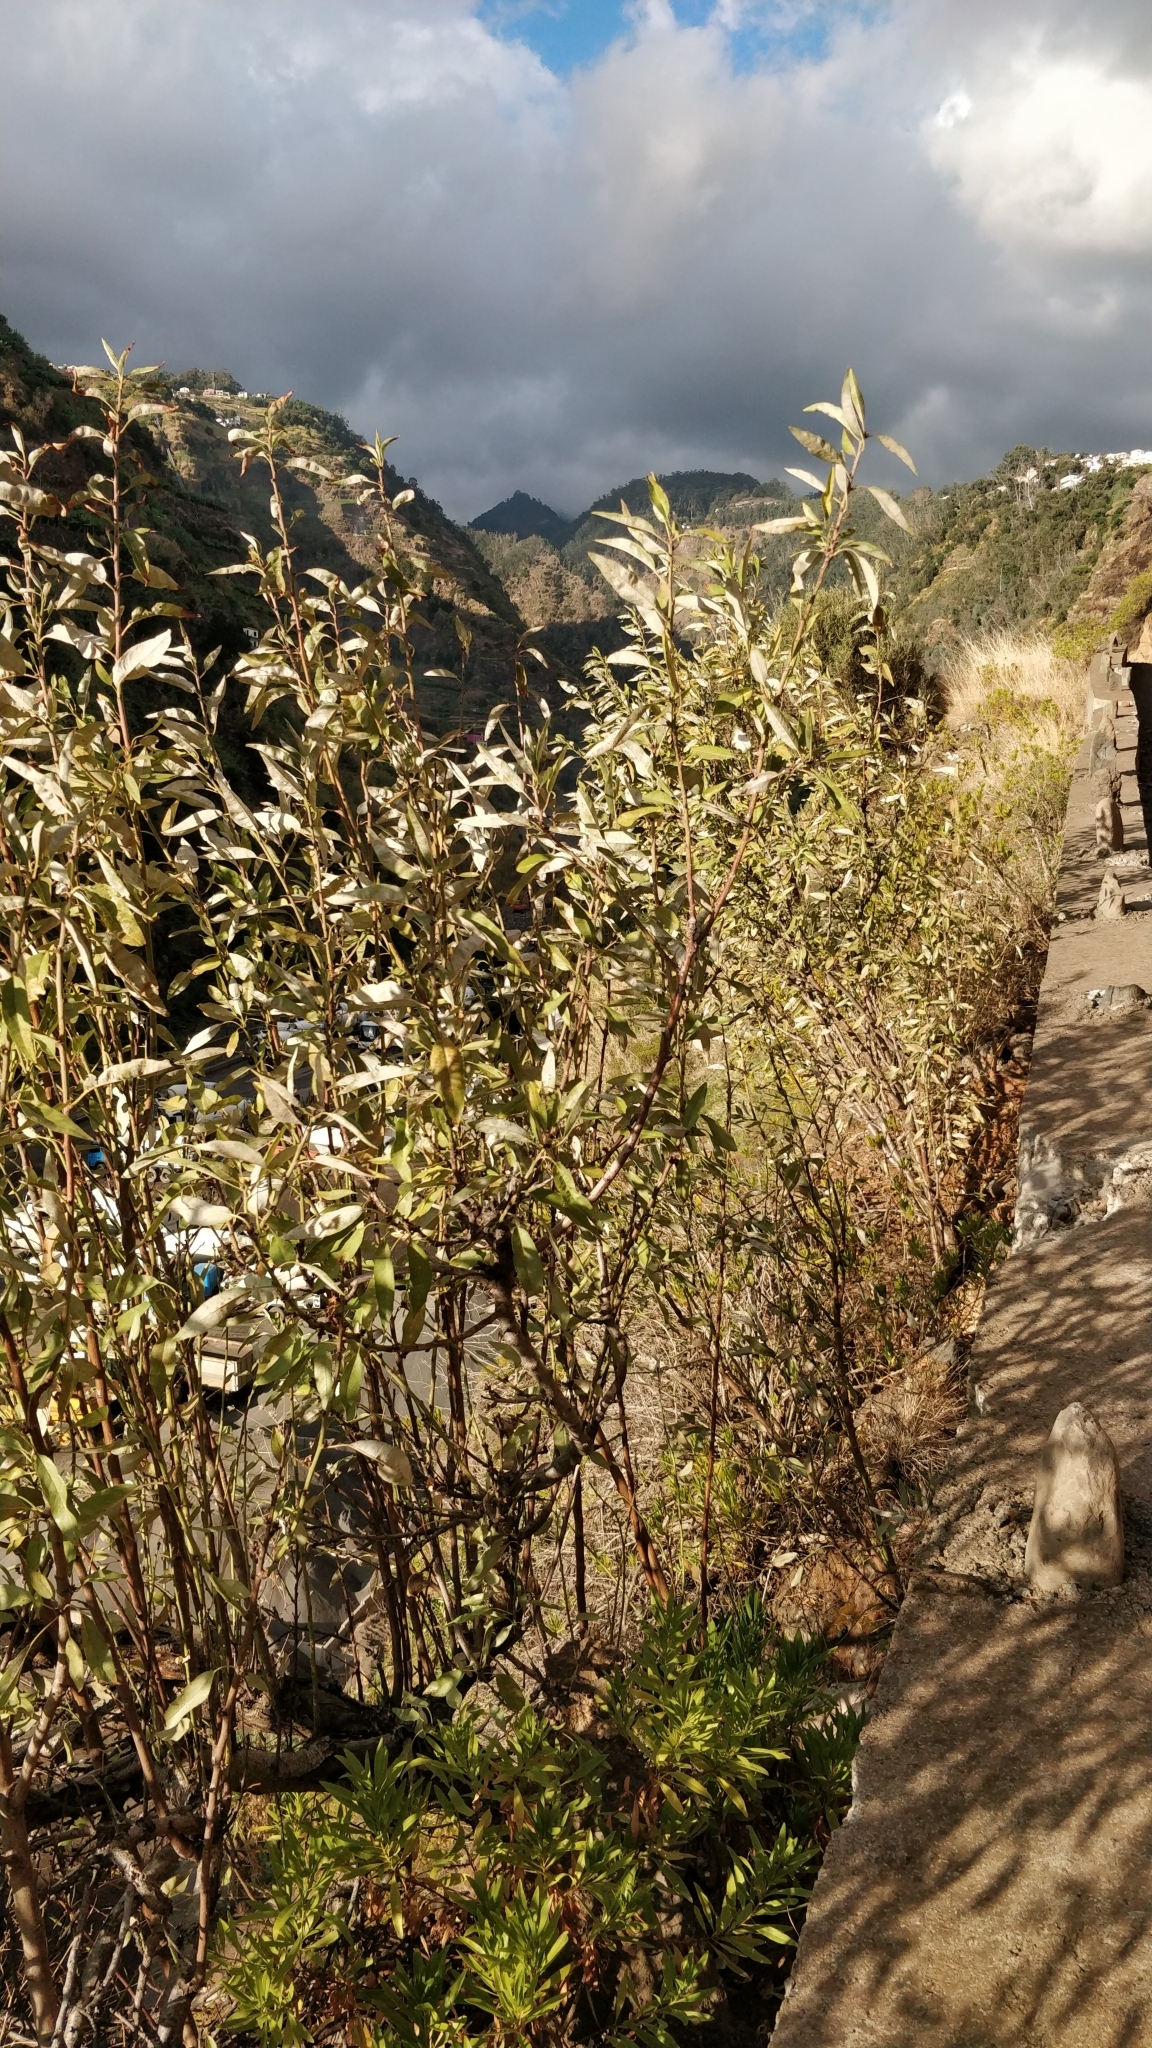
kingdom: Plantae
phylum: Tracheophyta
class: Magnoliopsida
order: Rosales
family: Rosaceae
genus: Prunus
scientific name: Prunus amygdalus
